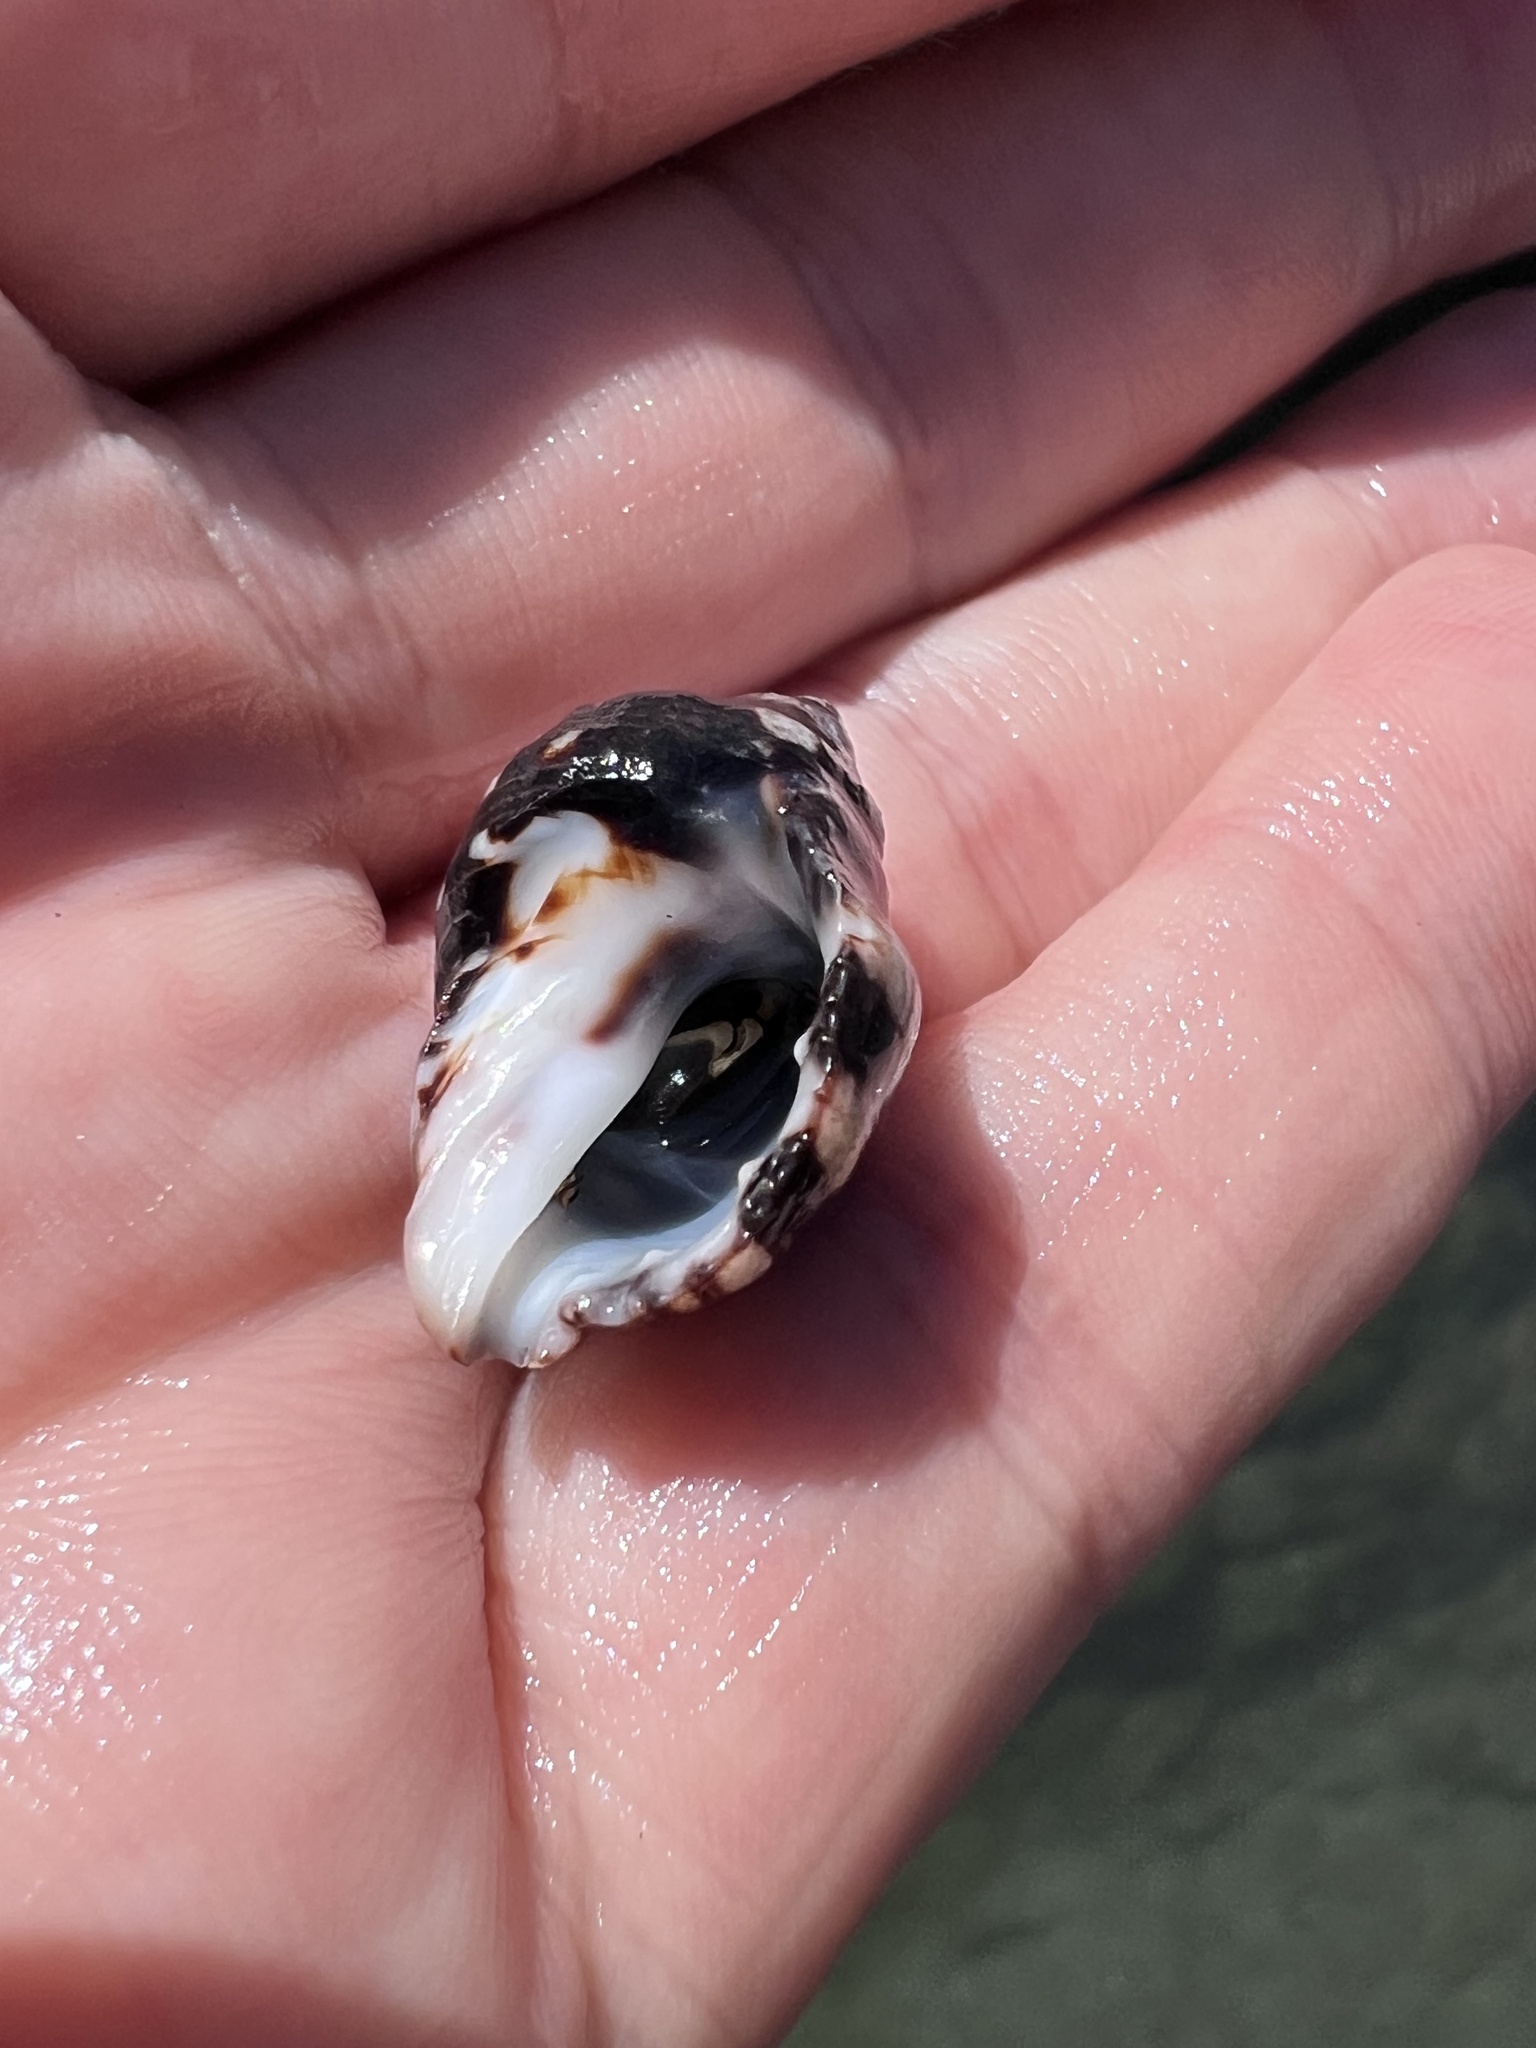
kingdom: Animalia
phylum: Mollusca
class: Gastropoda
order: Neogastropoda
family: Muricidae
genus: Acanthais
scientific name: Acanthais brevidentata
